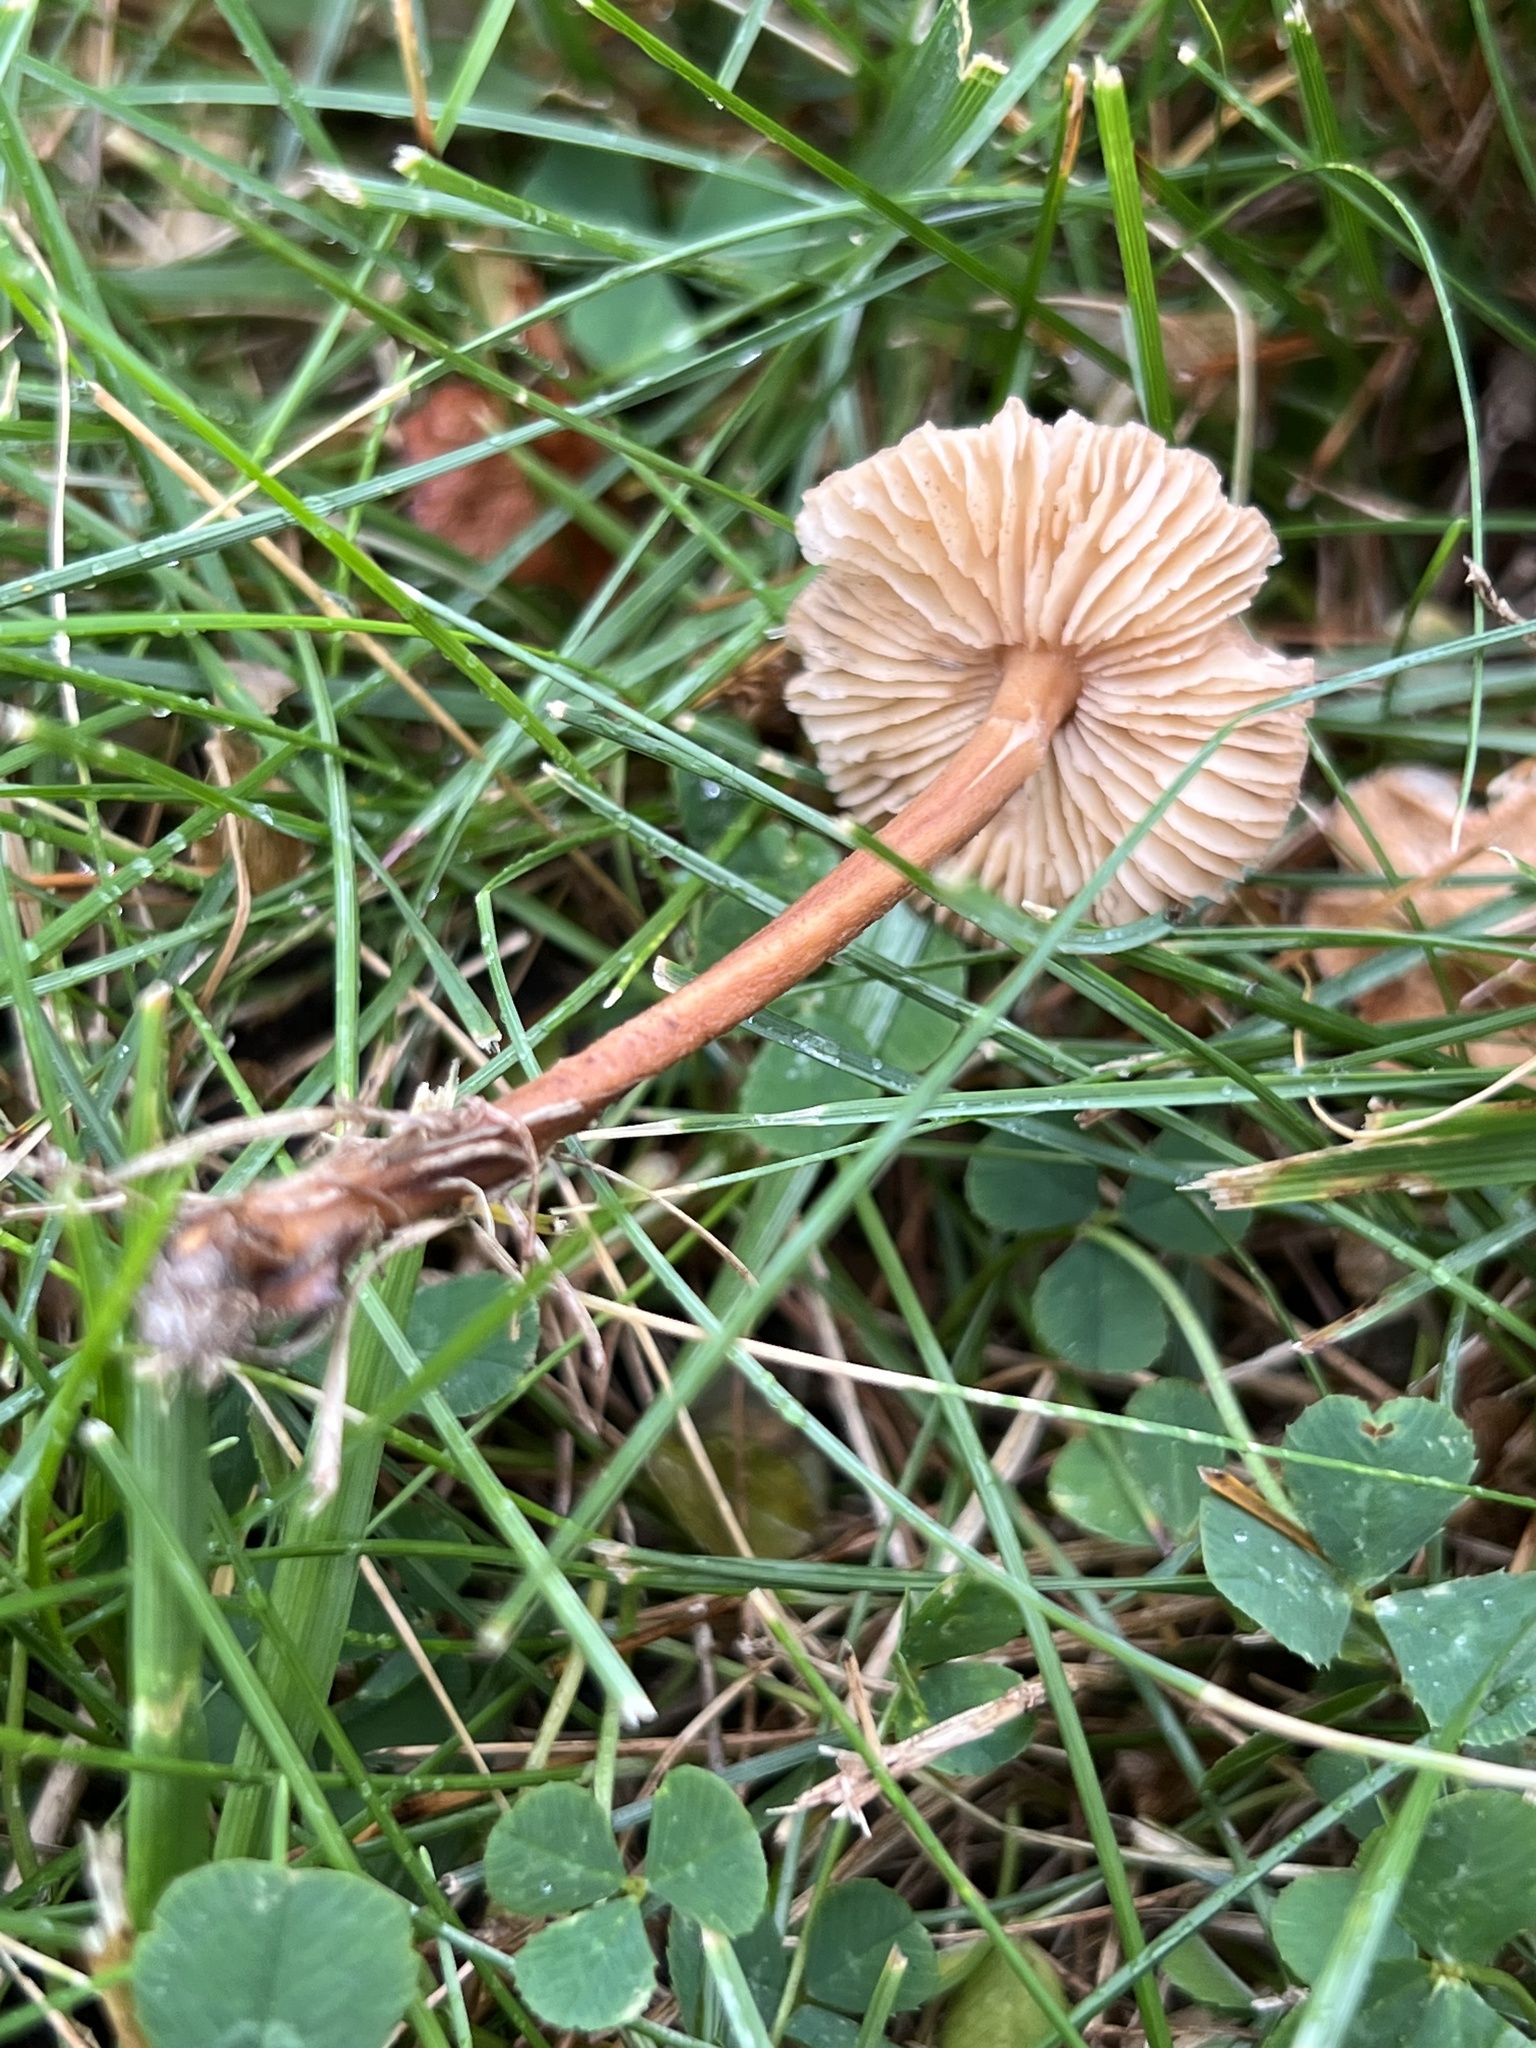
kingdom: Fungi
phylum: Basidiomycota
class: Agaricomycetes
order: Agaricales
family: Marasmiaceae
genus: Marasmius
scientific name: Marasmius oreades
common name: Fairy ring champignon
